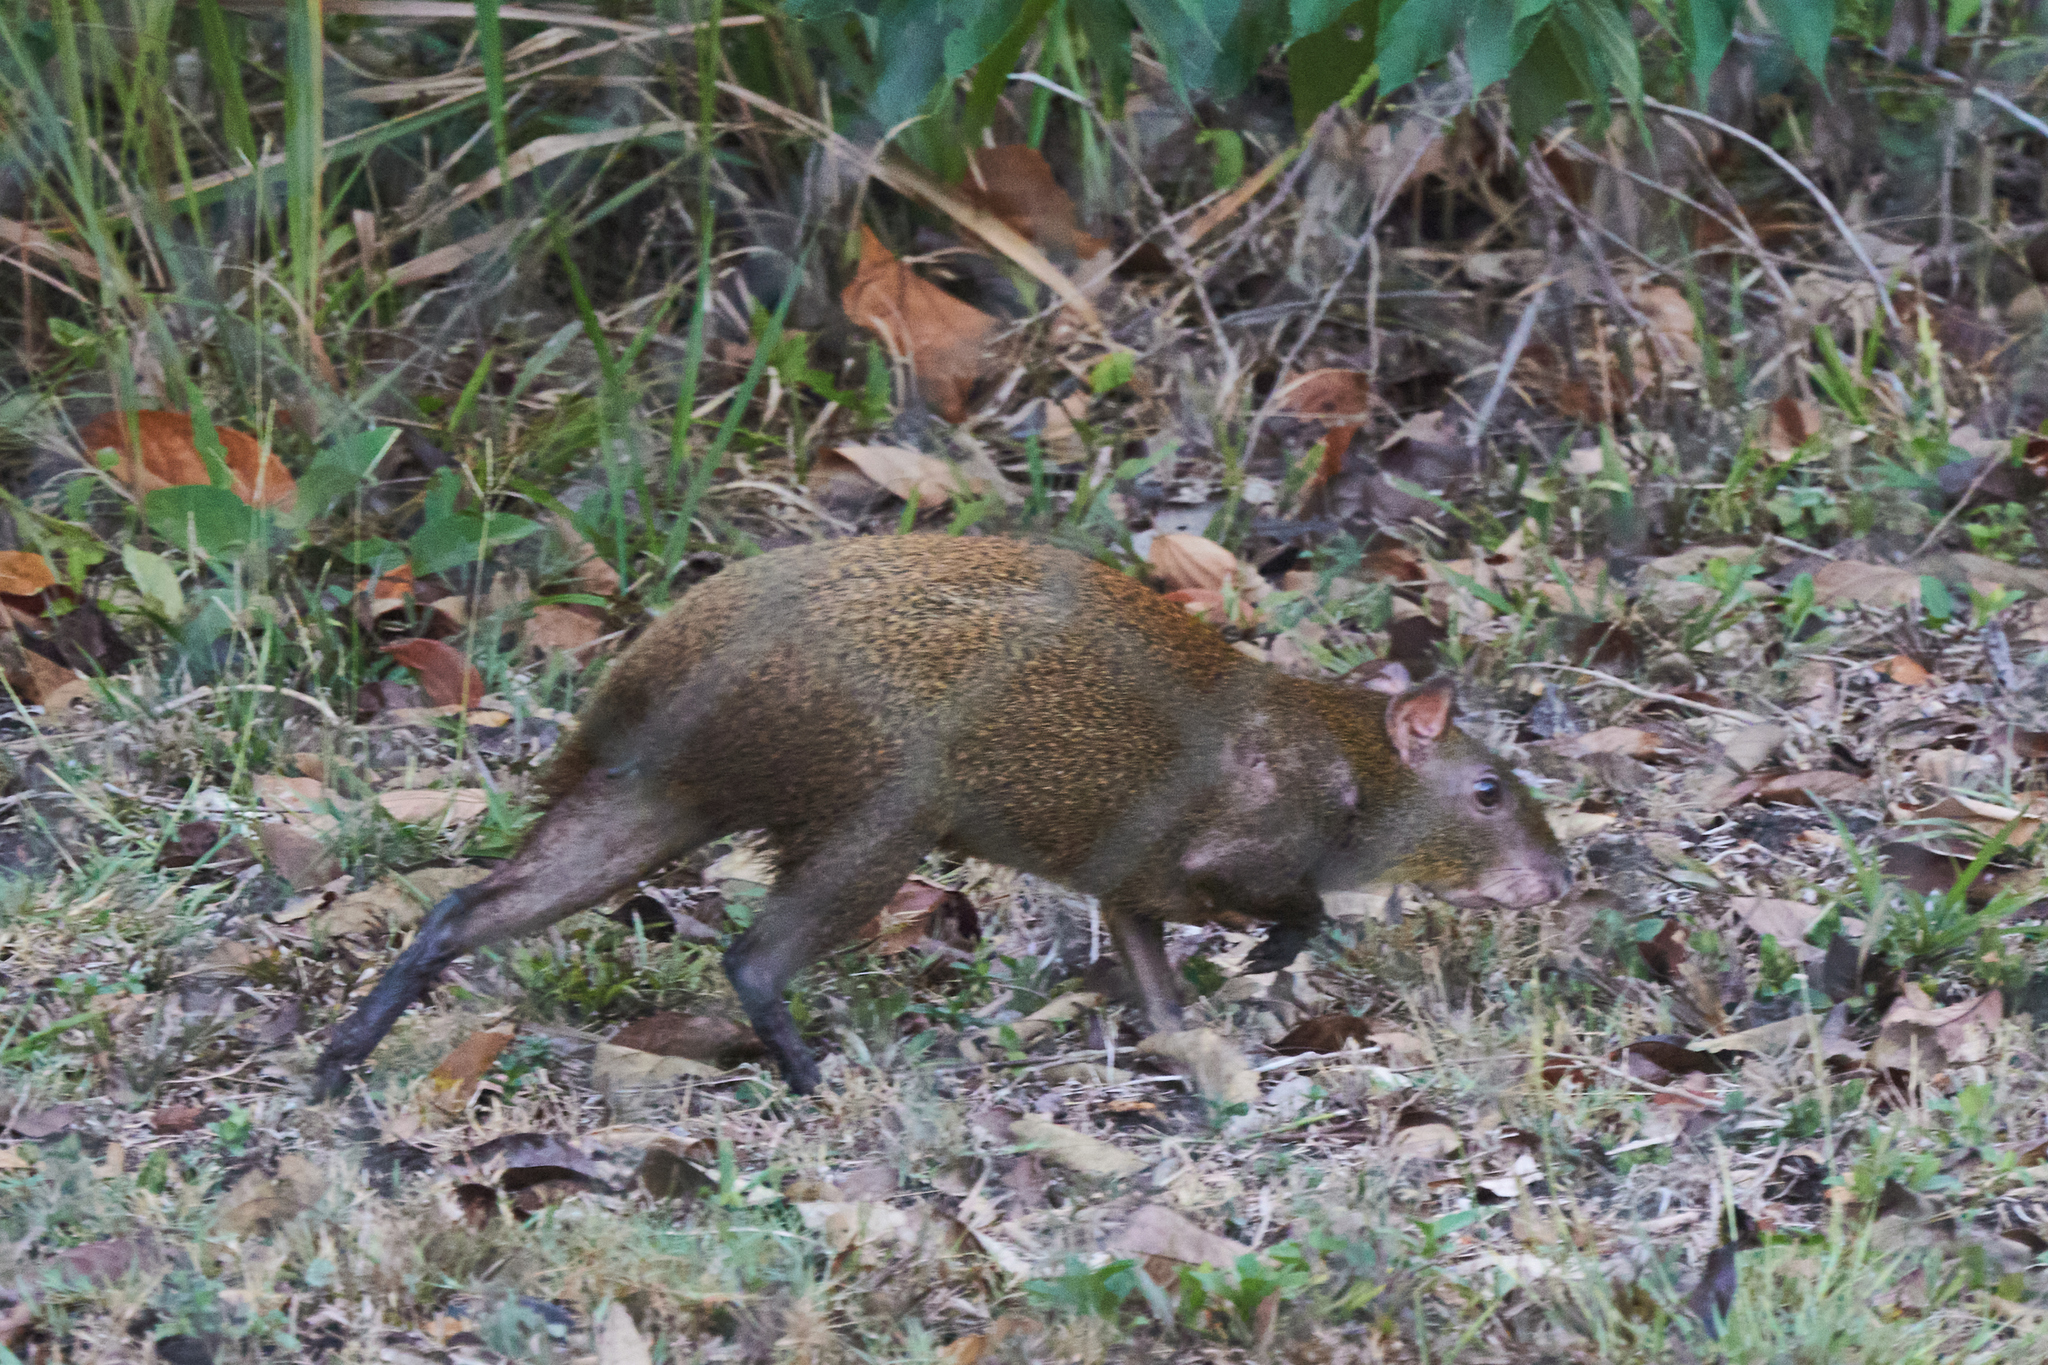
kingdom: Animalia
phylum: Chordata
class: Mammalia
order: Rodentia
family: Dasyproctidae
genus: Dasyprocta
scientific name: Dasyprocta punctata
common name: Central american agouti
